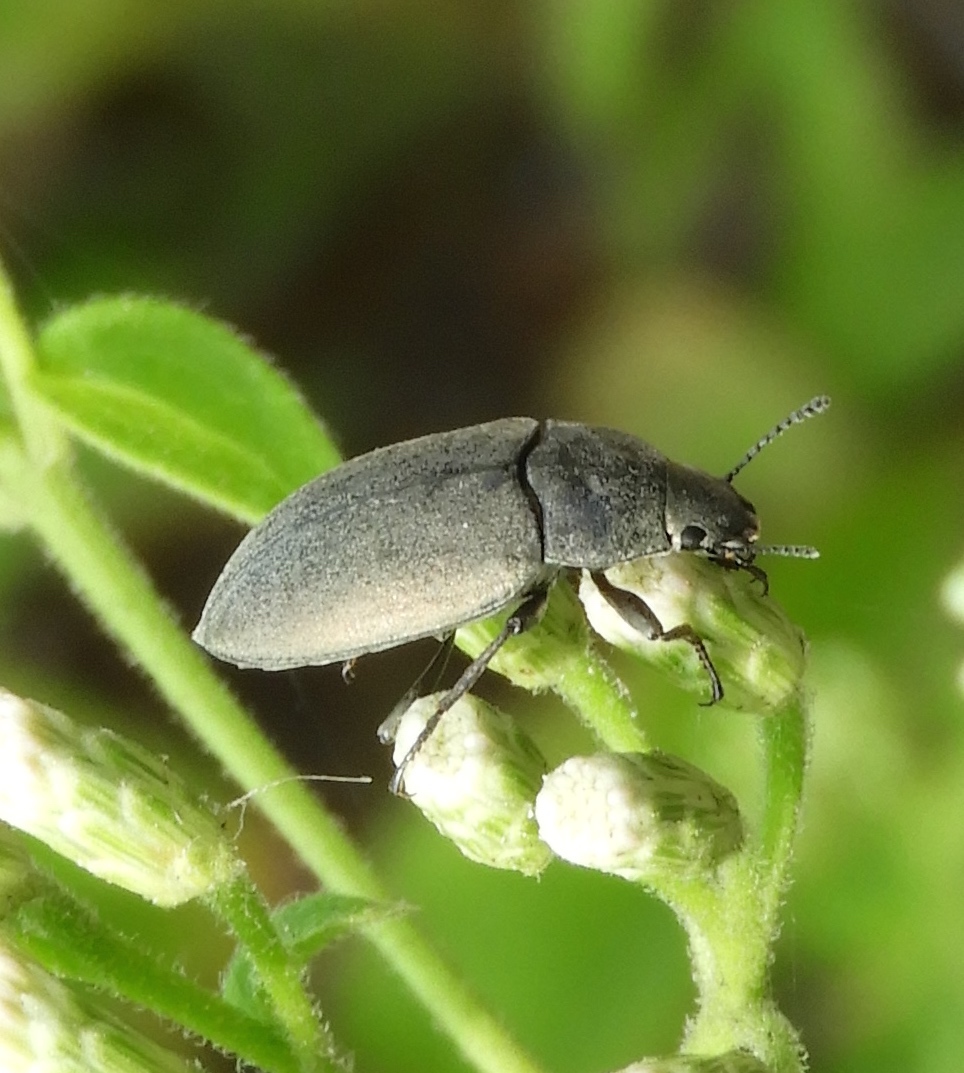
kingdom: Animalia
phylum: Arthropoda
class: Insecta
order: Coleoptera
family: Tenebrionidae
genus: Bothrotes
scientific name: Bothrotes
